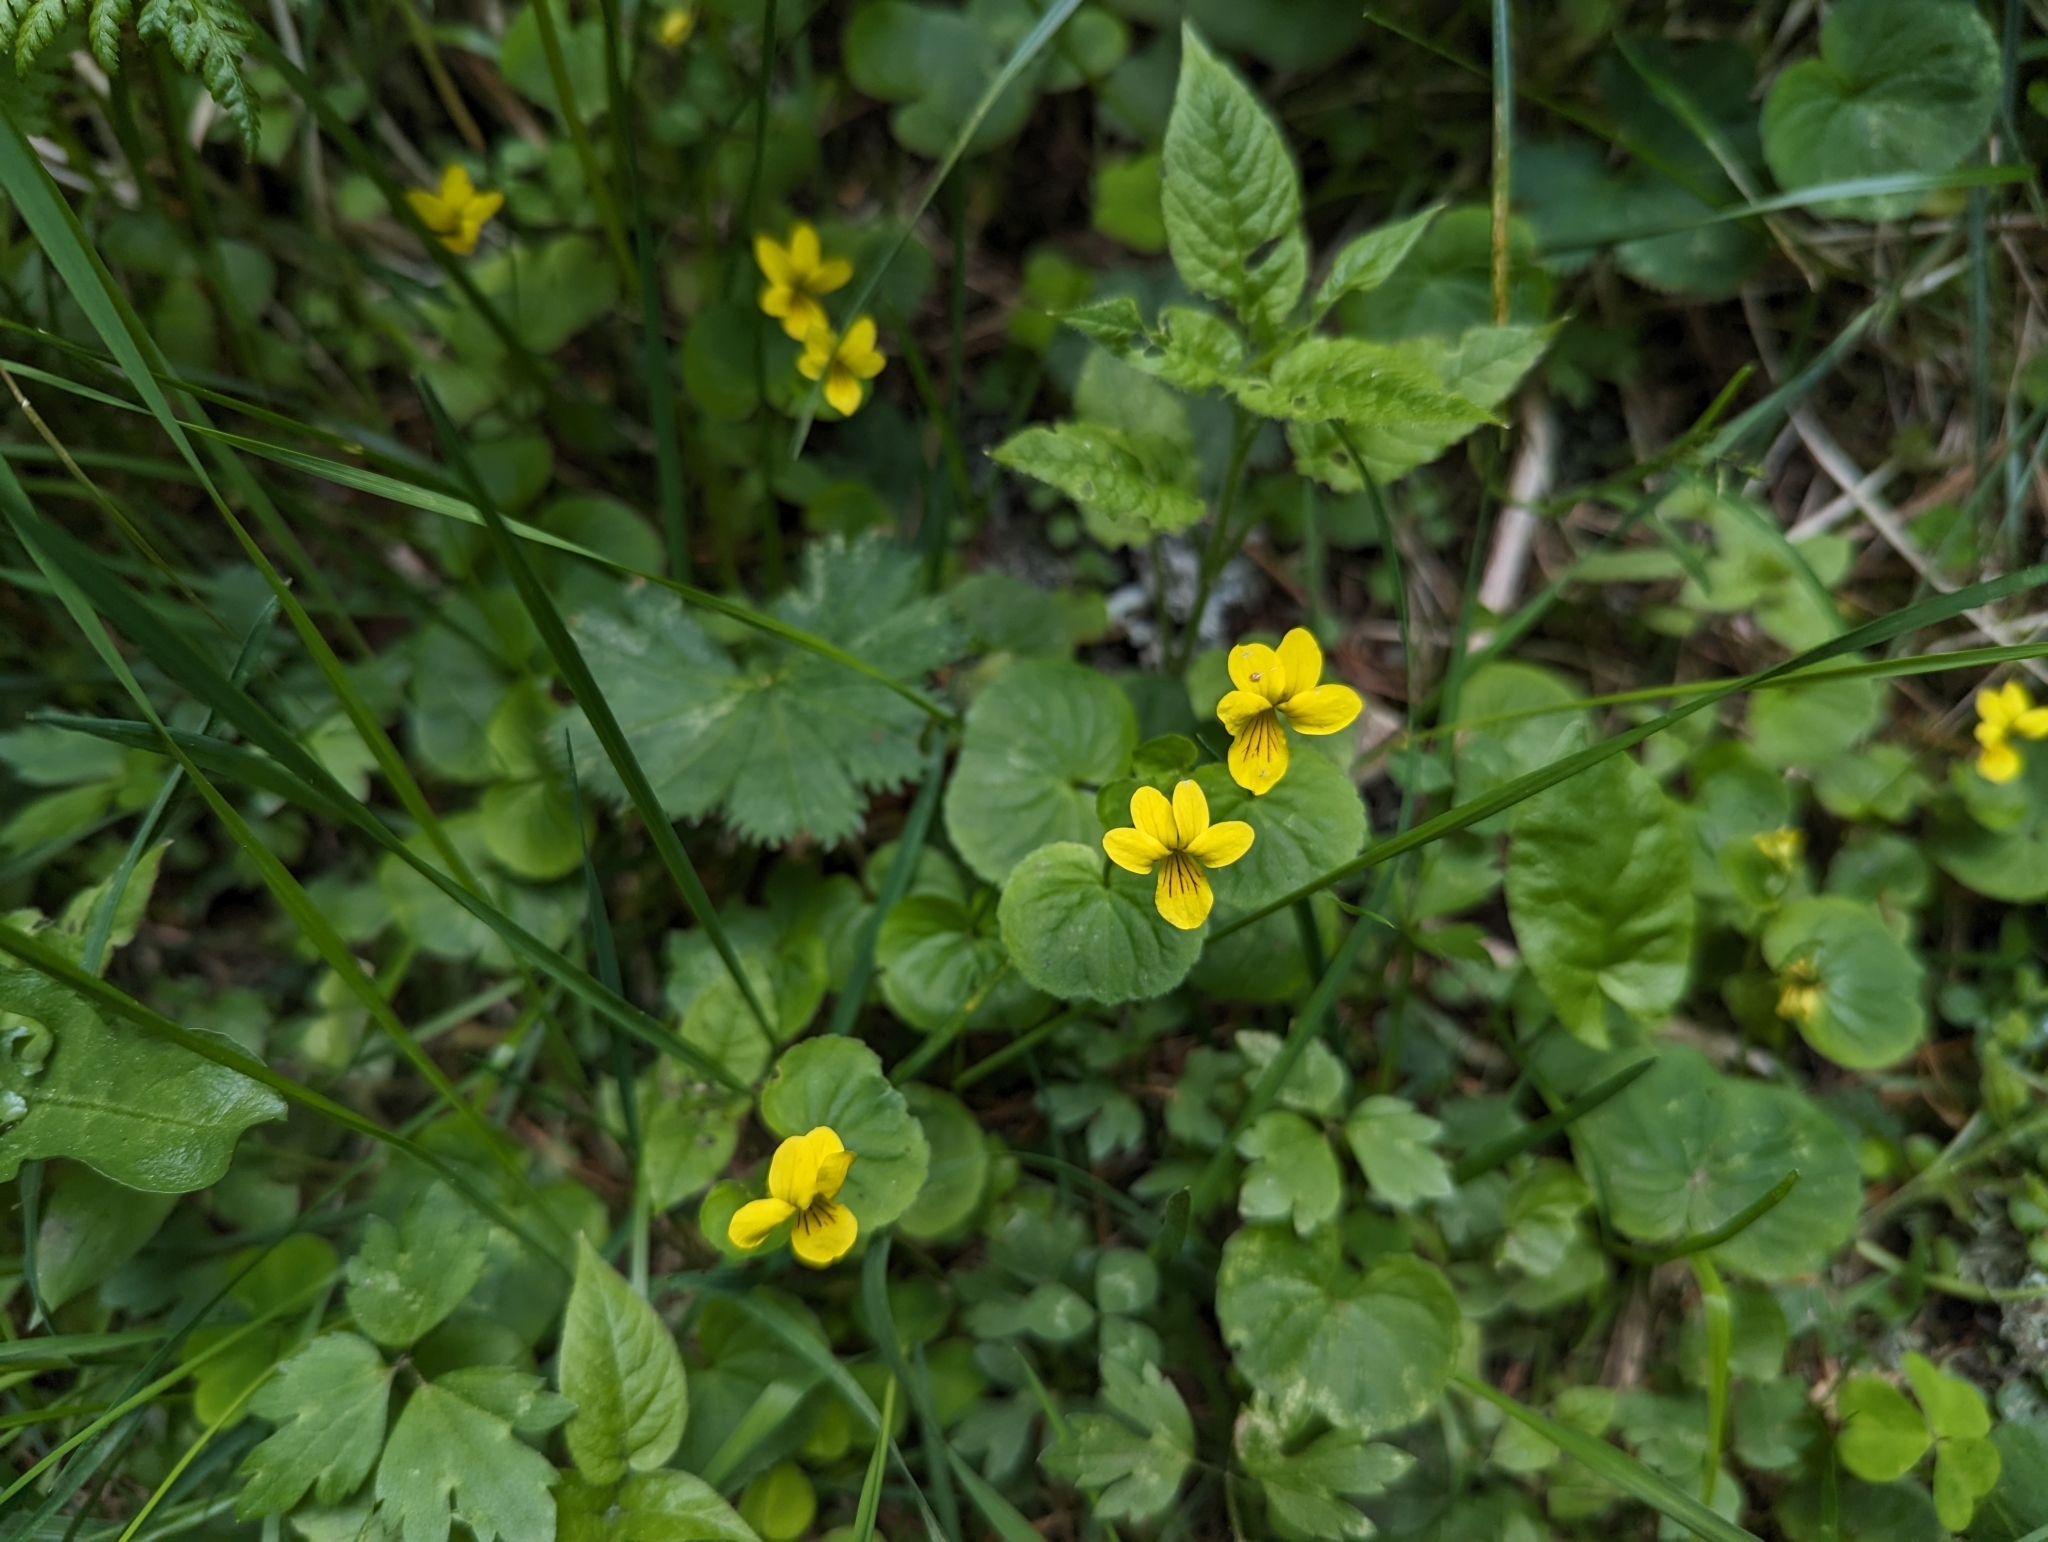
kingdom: Plantae
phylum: Tracheophyta
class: Magnoliopsida
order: Malpighiales
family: Violaceae
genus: Viola
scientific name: Viola biflora
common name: Alpine yellow violet
